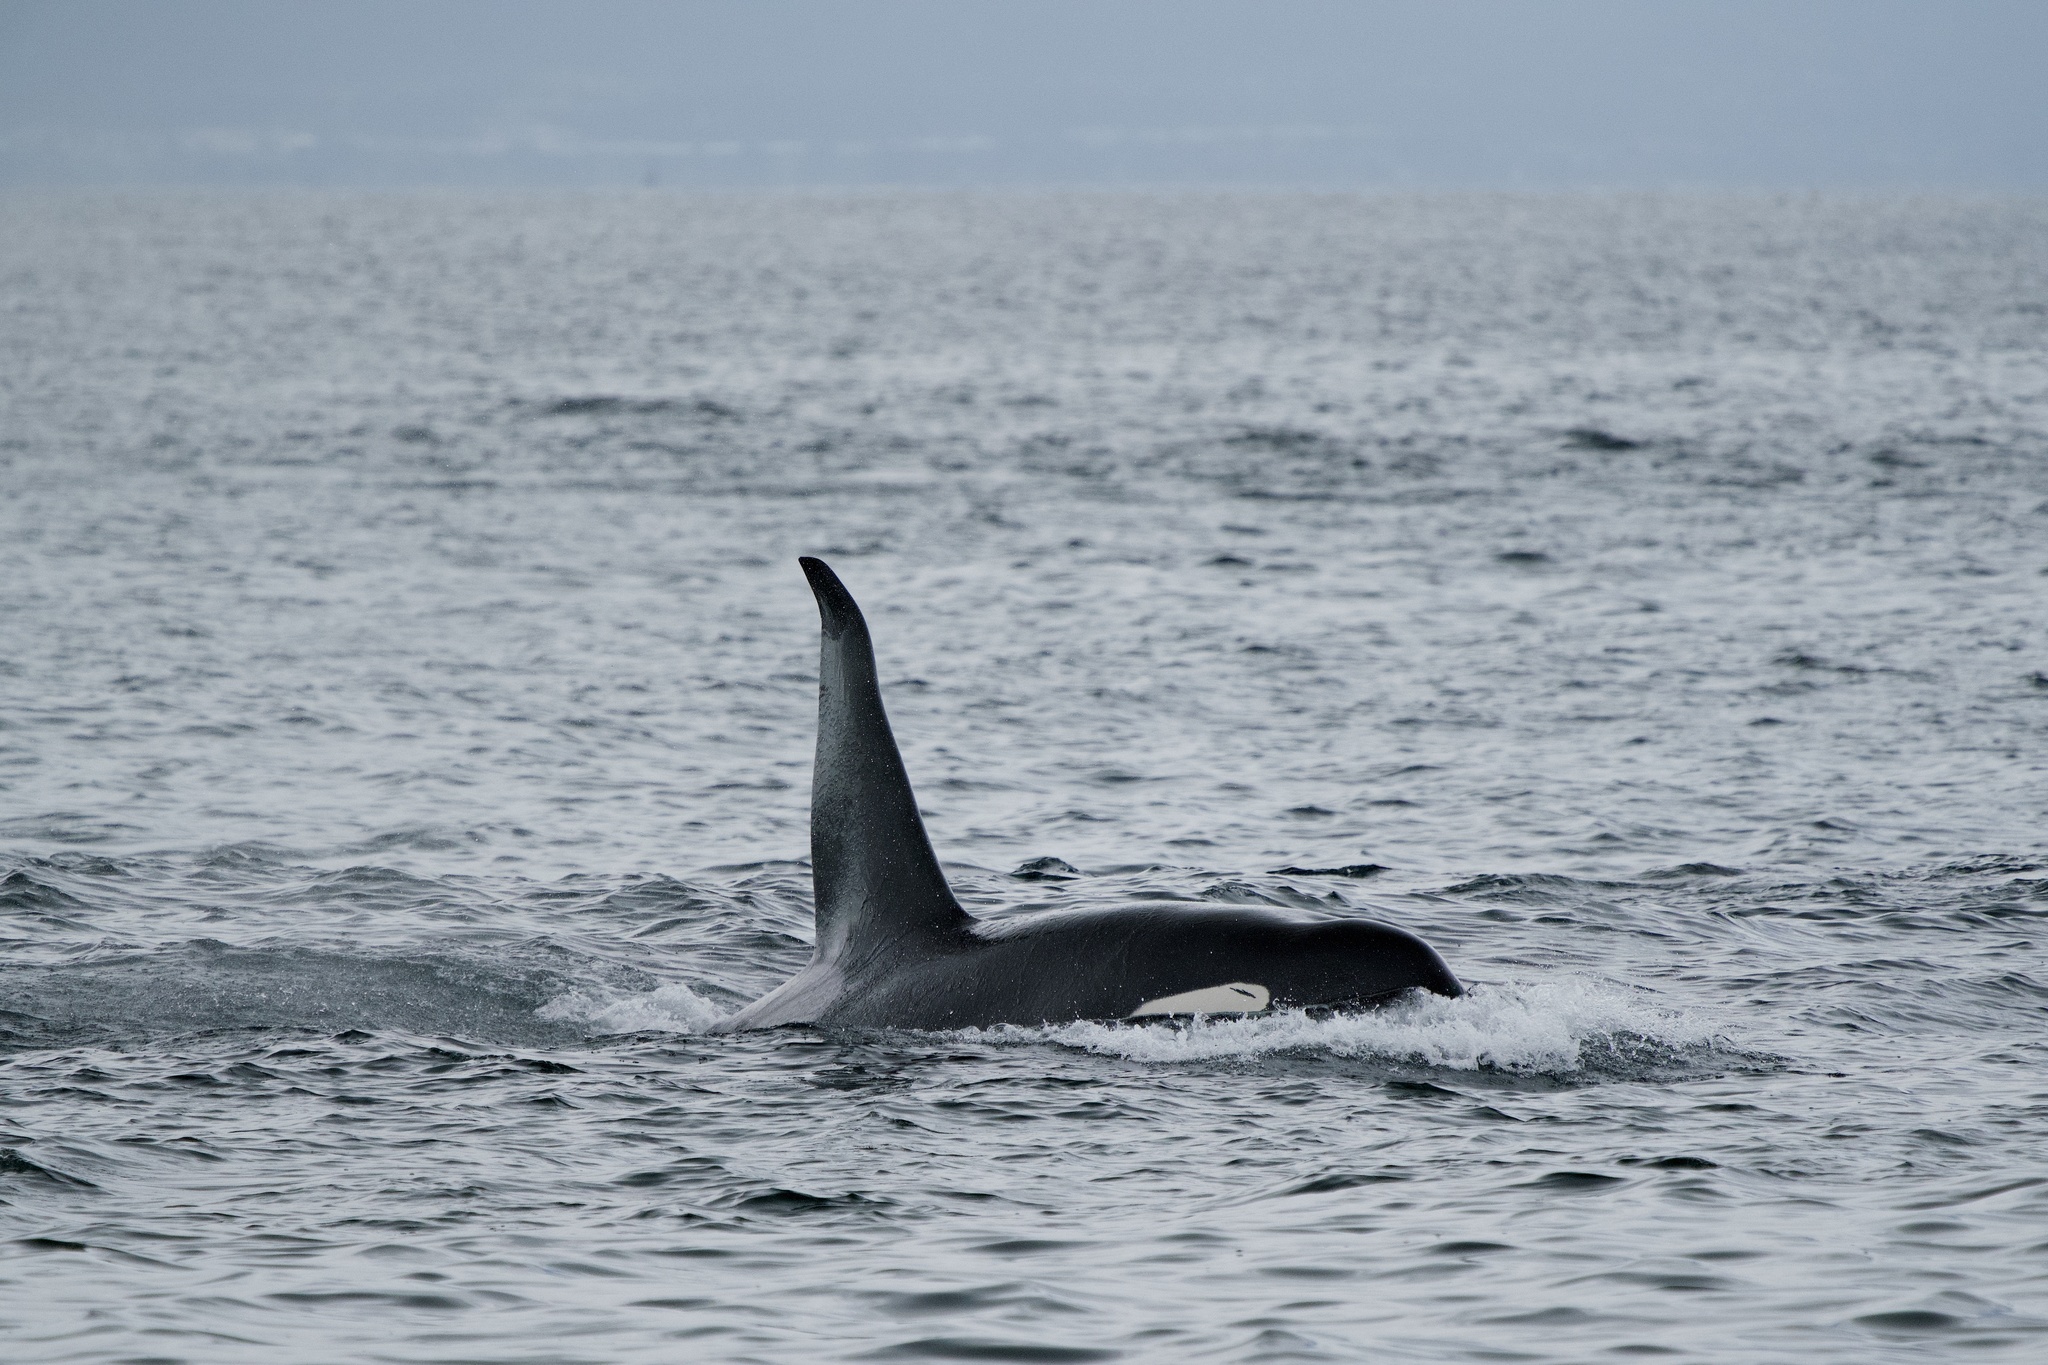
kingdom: Animalia
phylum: Chordata
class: Mammalia
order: Cetacea
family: Delphinidae
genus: Orcinus
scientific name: Orcinus orca
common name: Killer whale
